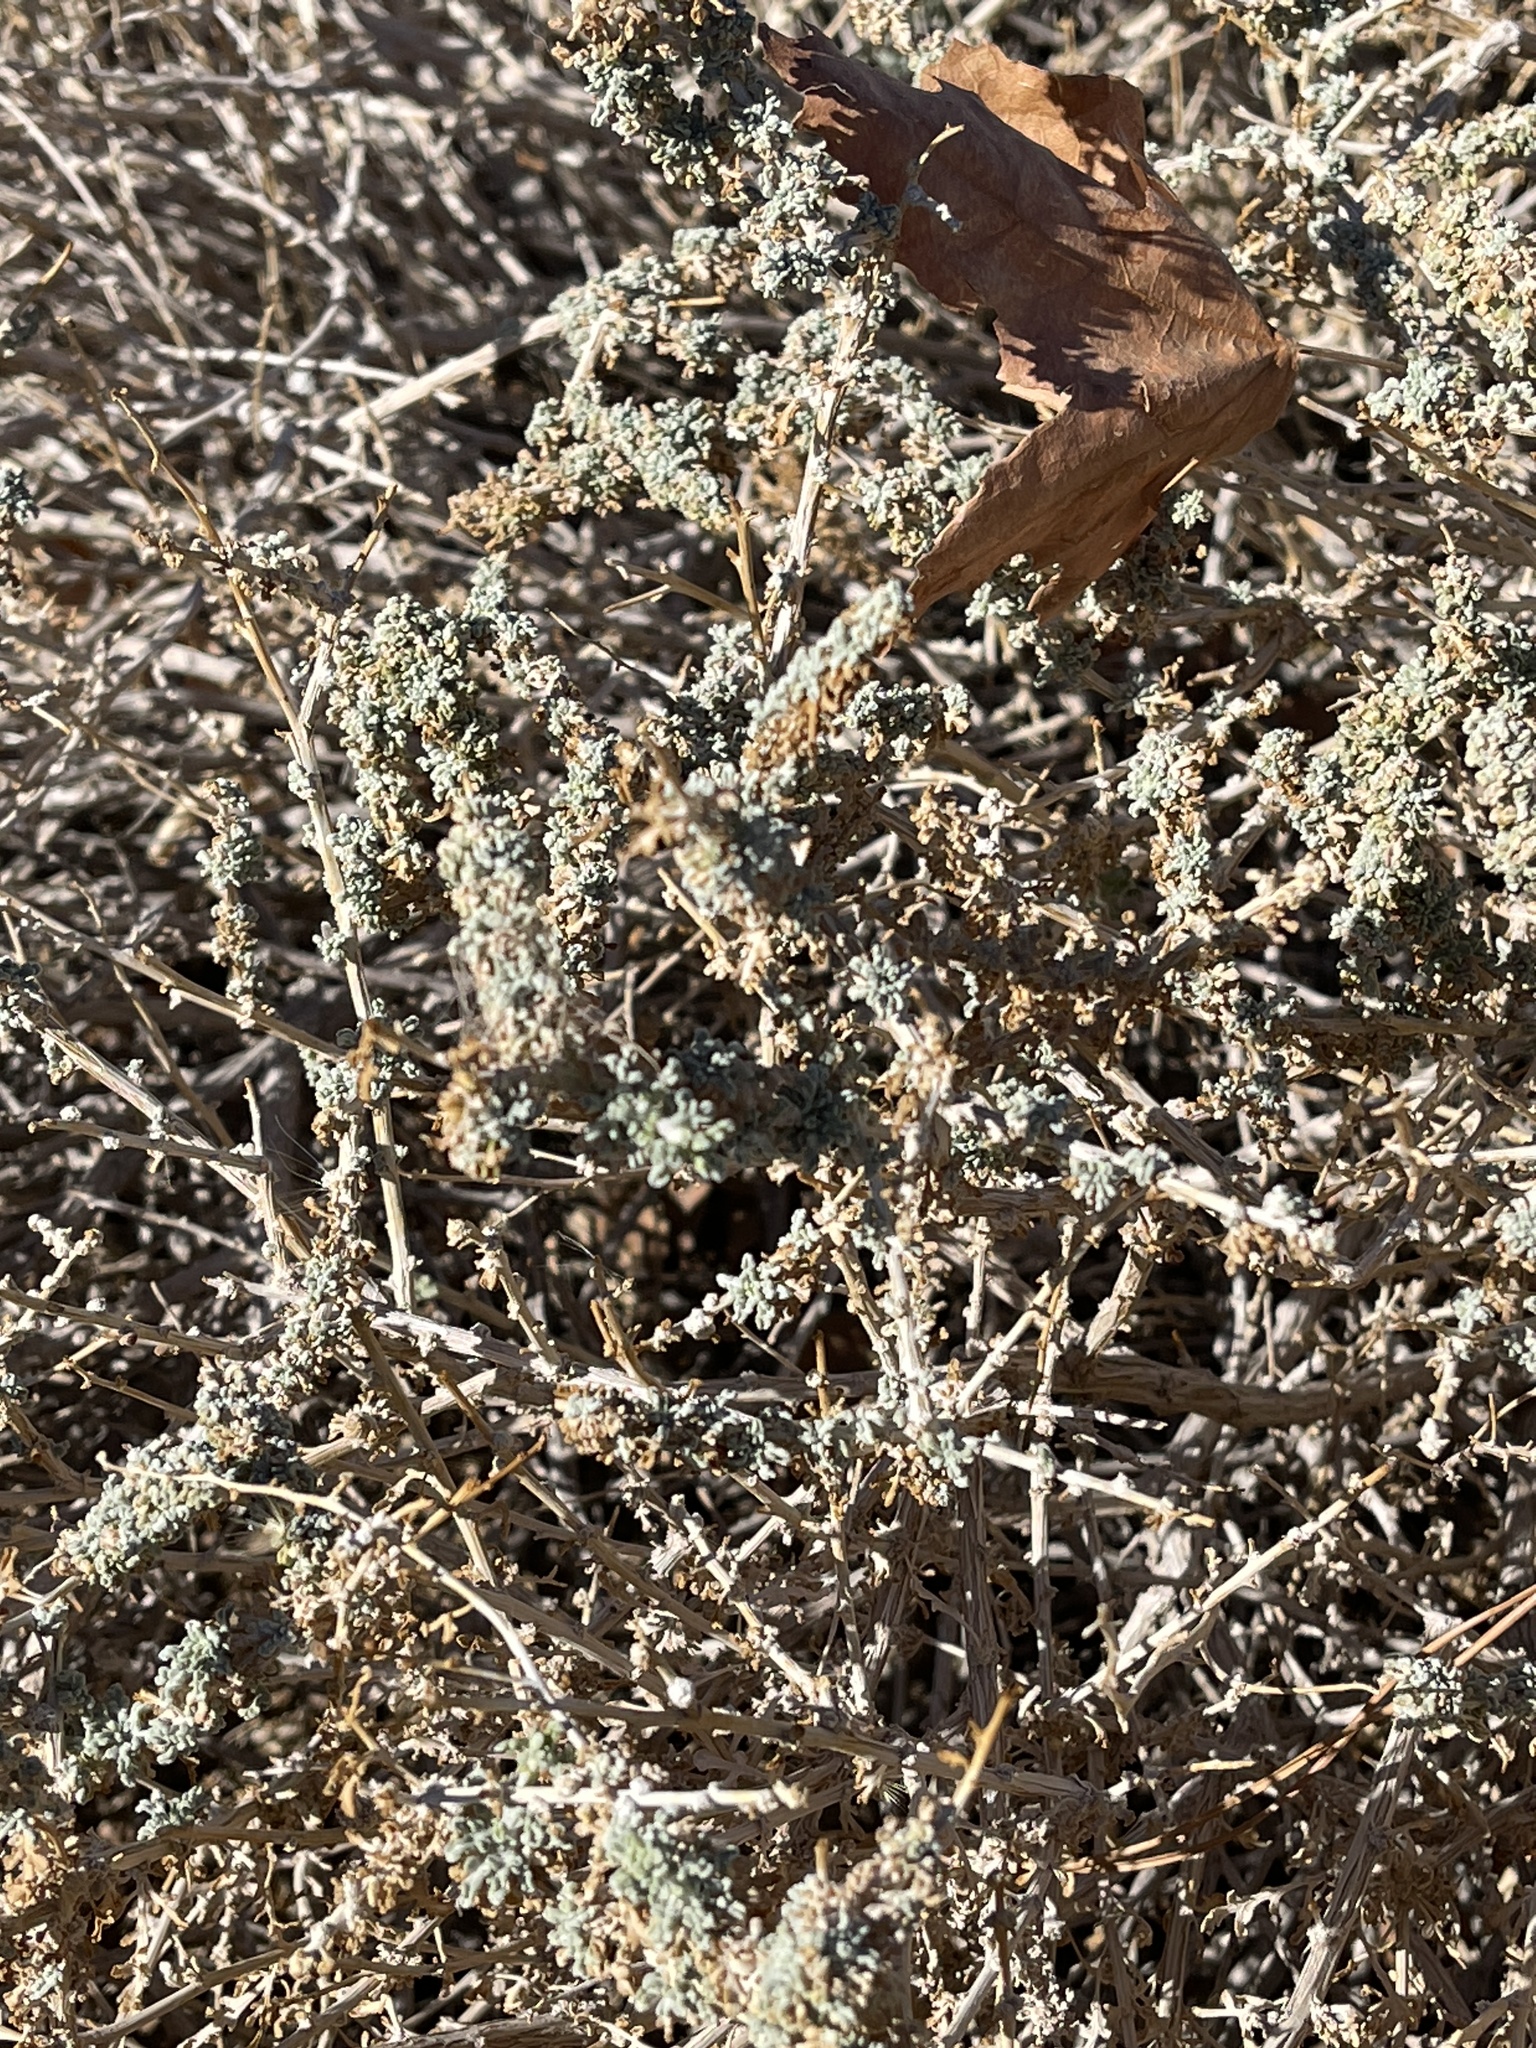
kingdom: Plantae
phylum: Tracheophyta
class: Magnoliopsida
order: Caryophyllales
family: Amaranthaceae
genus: Atriplex
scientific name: Atriplex polycarpa
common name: Desert saltbush
